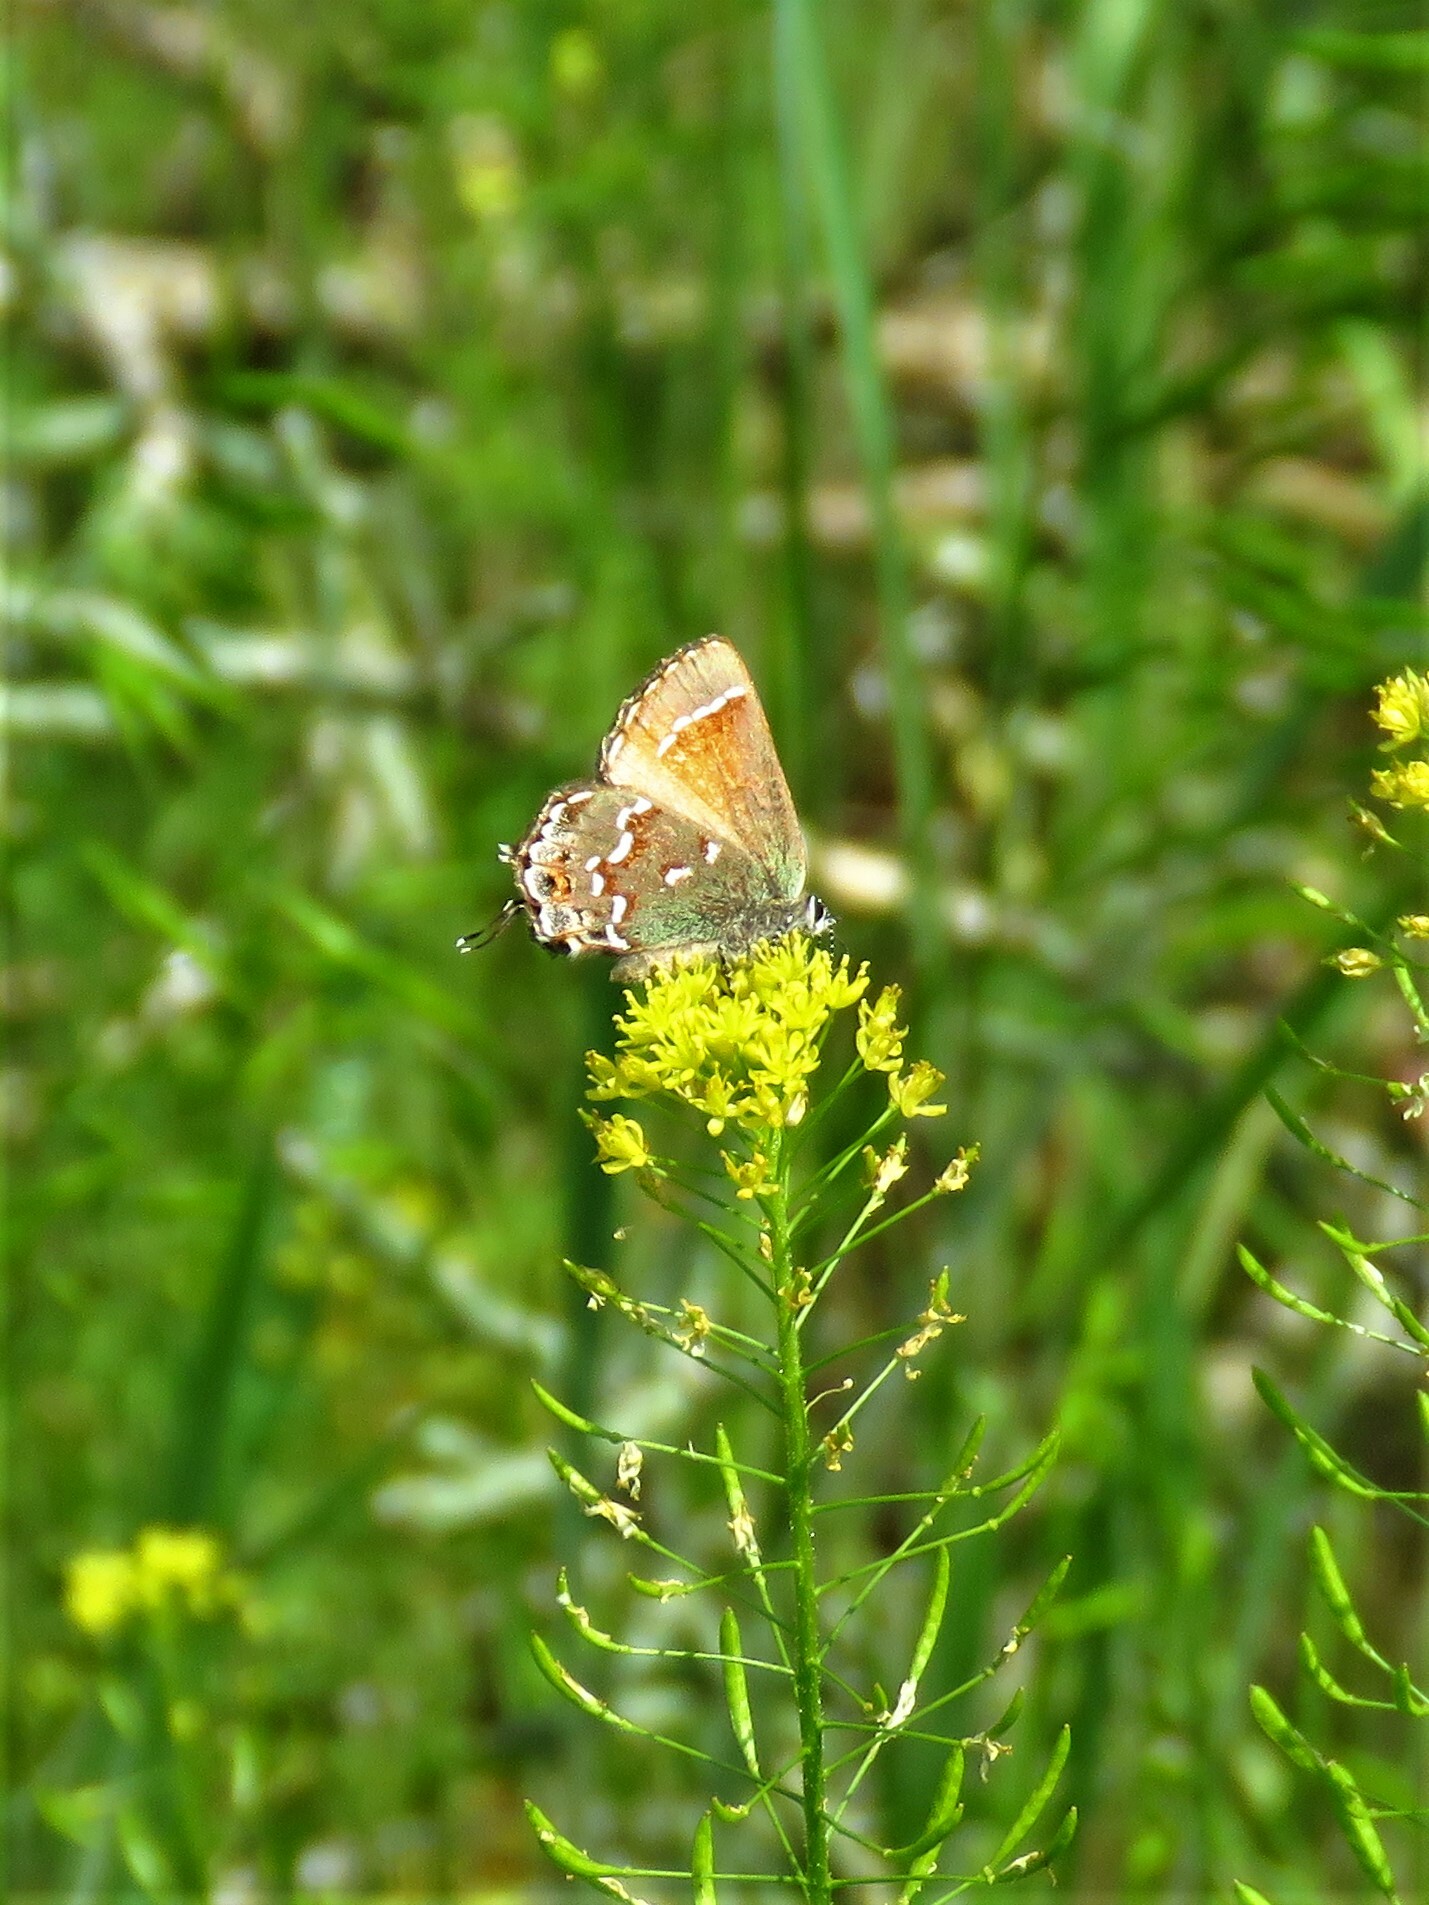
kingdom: Animalia
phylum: Arthropoda
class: Insecta
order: Lepidoptera
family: Lycaenidae
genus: Mitoura
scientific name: Mitoura gryneus
